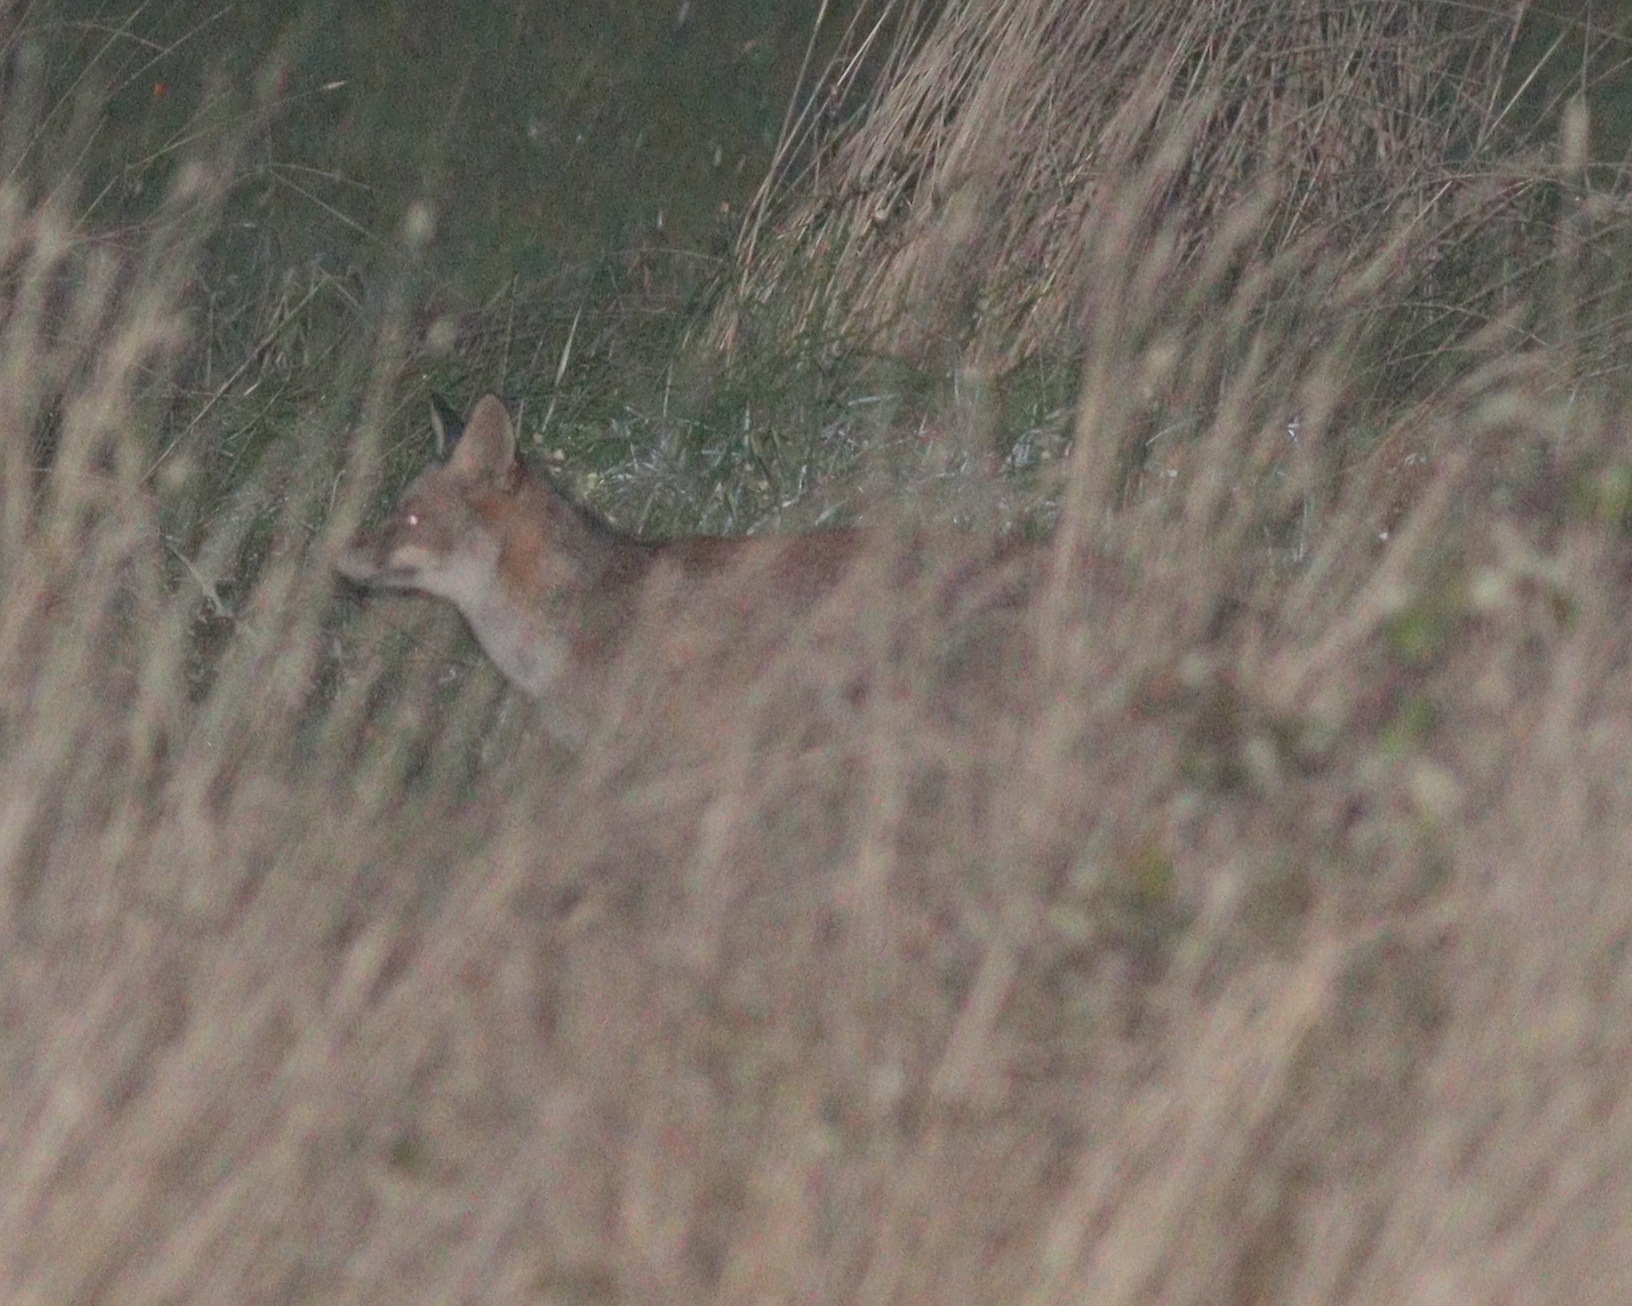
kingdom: Animalia
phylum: Chordata
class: Mammalia
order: Carnivora
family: Canidae
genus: Vulpes
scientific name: Vulpes vulpes
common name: Red fox
